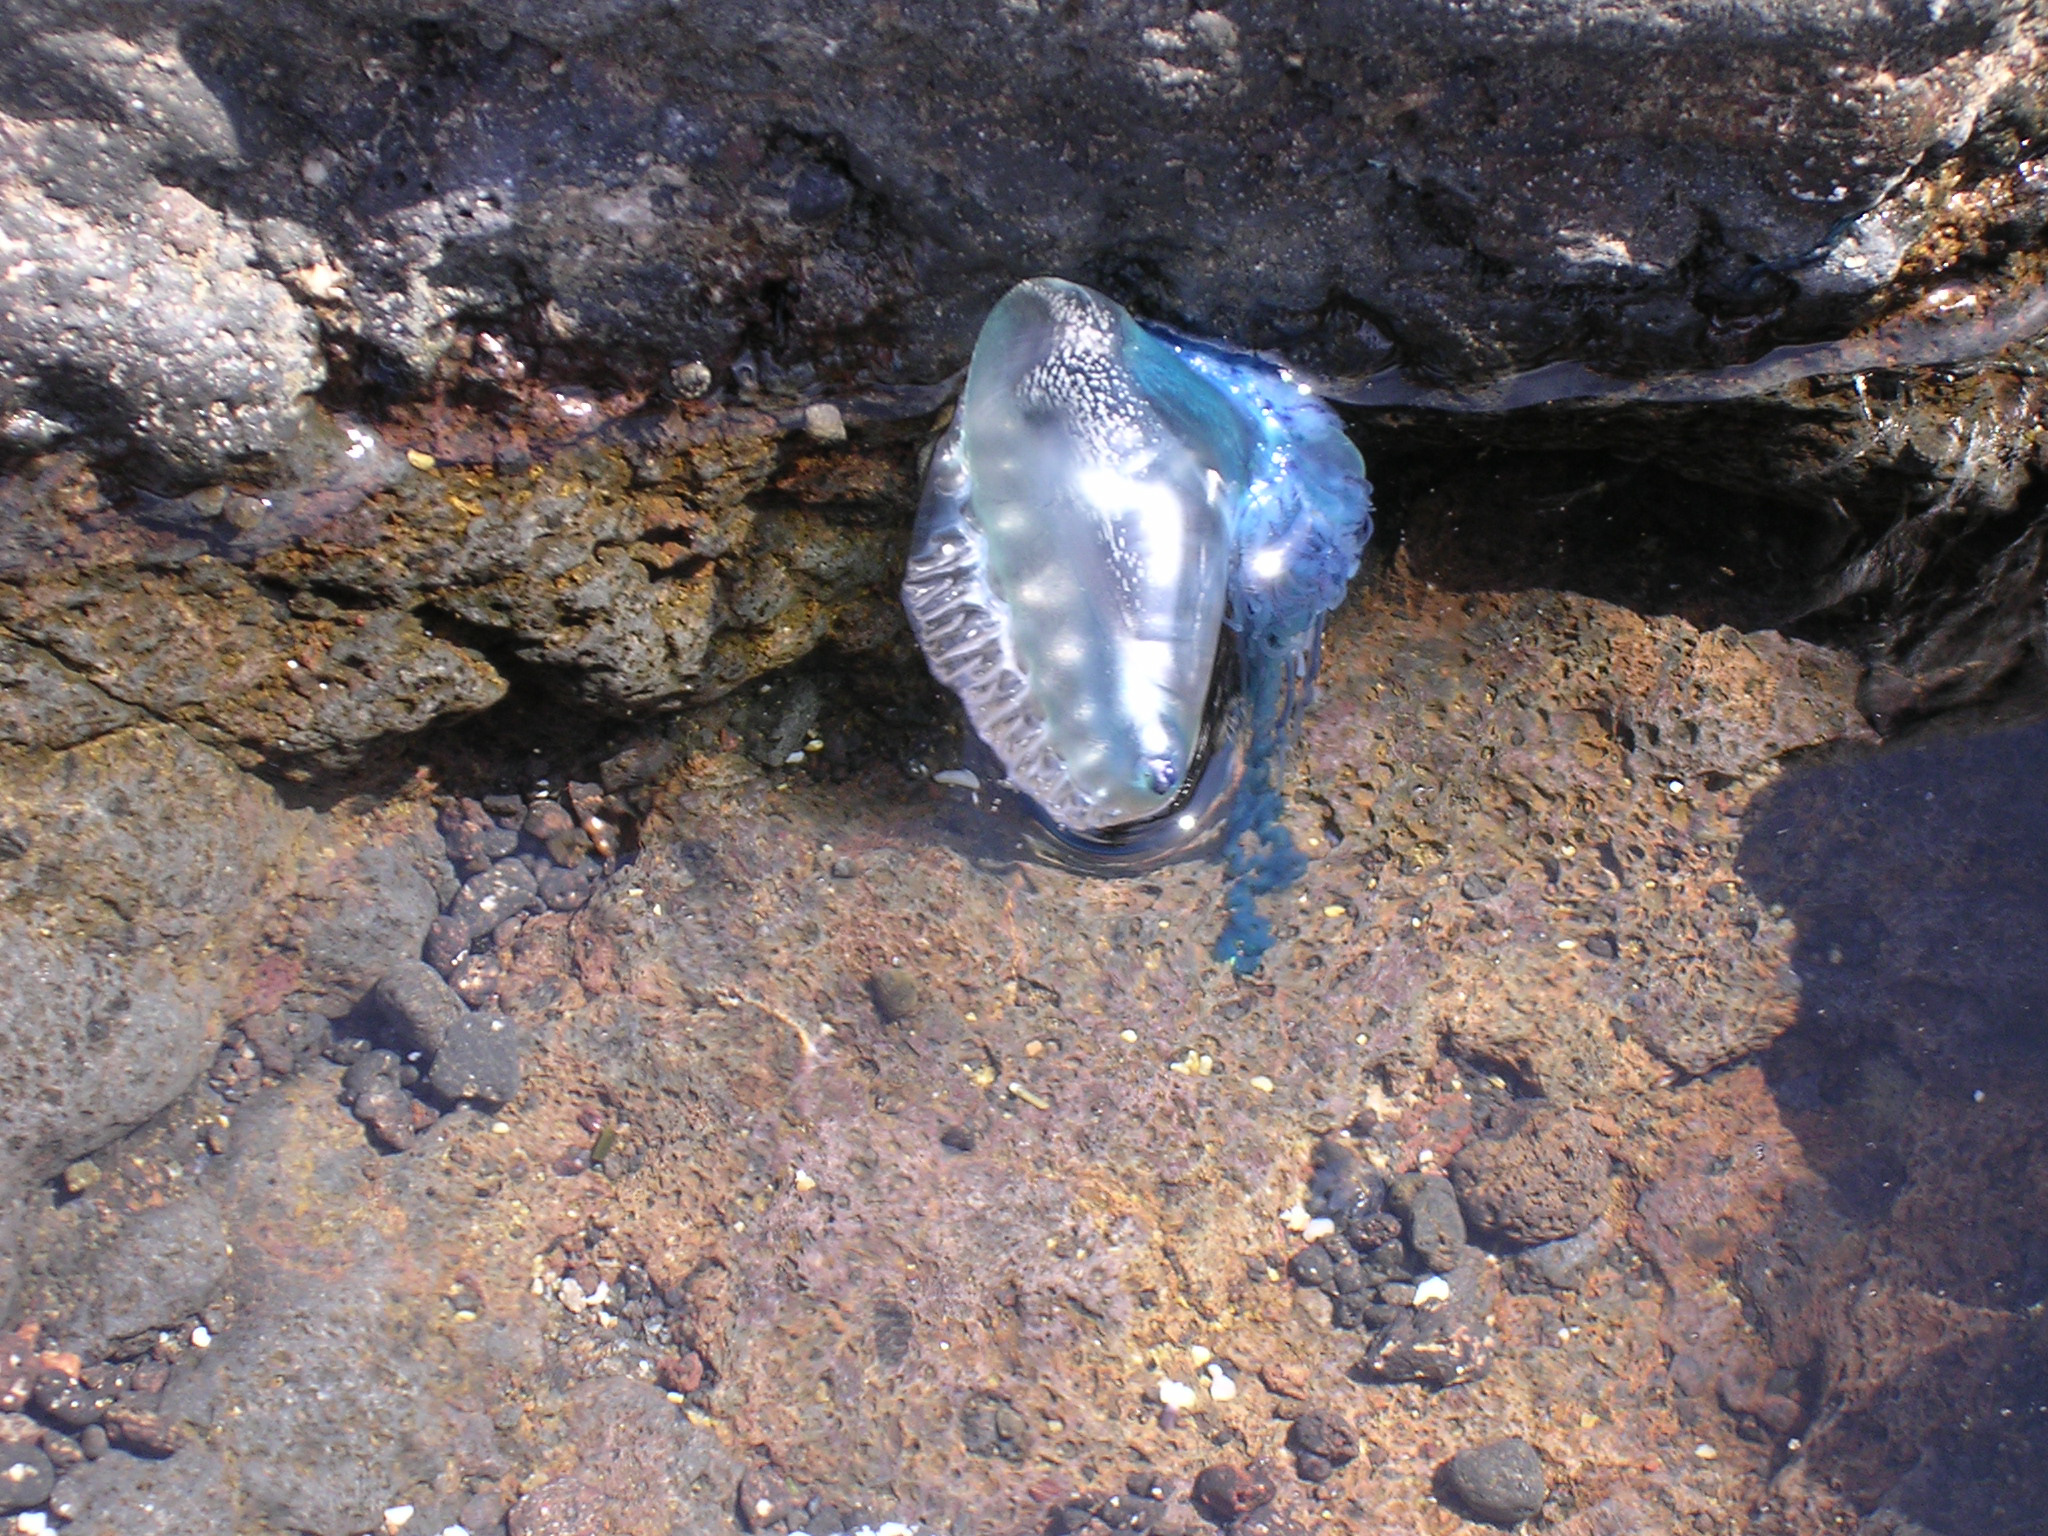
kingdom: Animalia
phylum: Cnidaria
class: Hydrozoa
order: Siphonophorae
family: Physaliidae
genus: Physalia
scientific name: Physalia physalis
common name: Portuguese man-of-war
